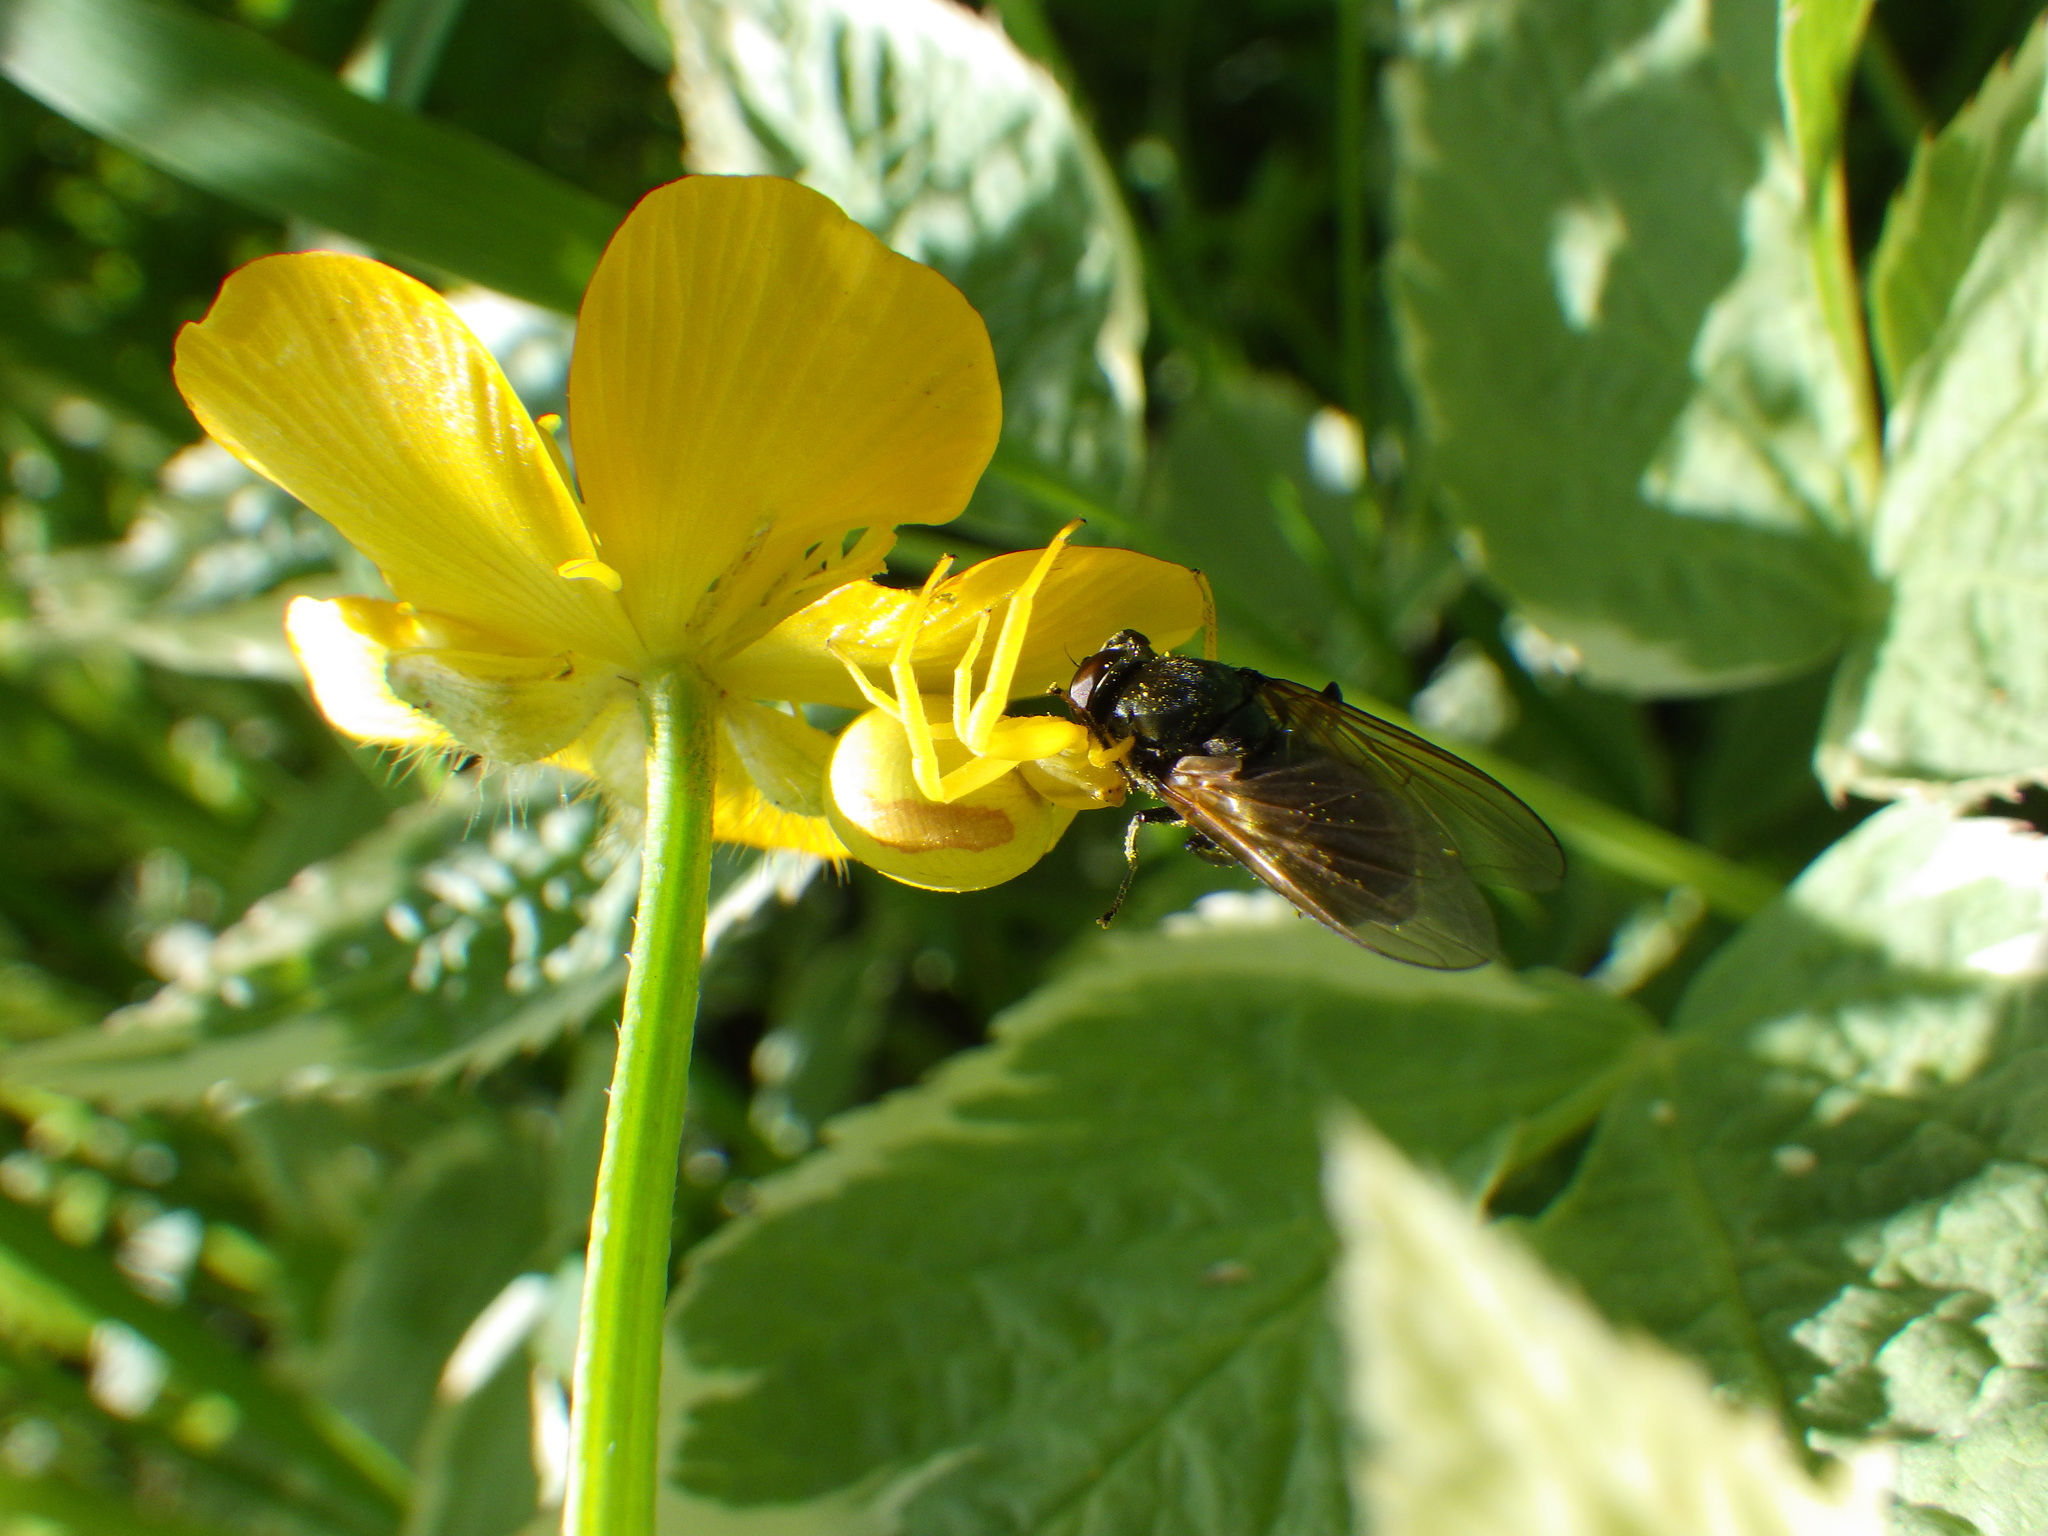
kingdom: Animalia
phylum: Arthropoda
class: Arachnida
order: Araneae
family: Thomisidae
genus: Misumena
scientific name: Misumena vatia
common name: Goldenrod crab spider
